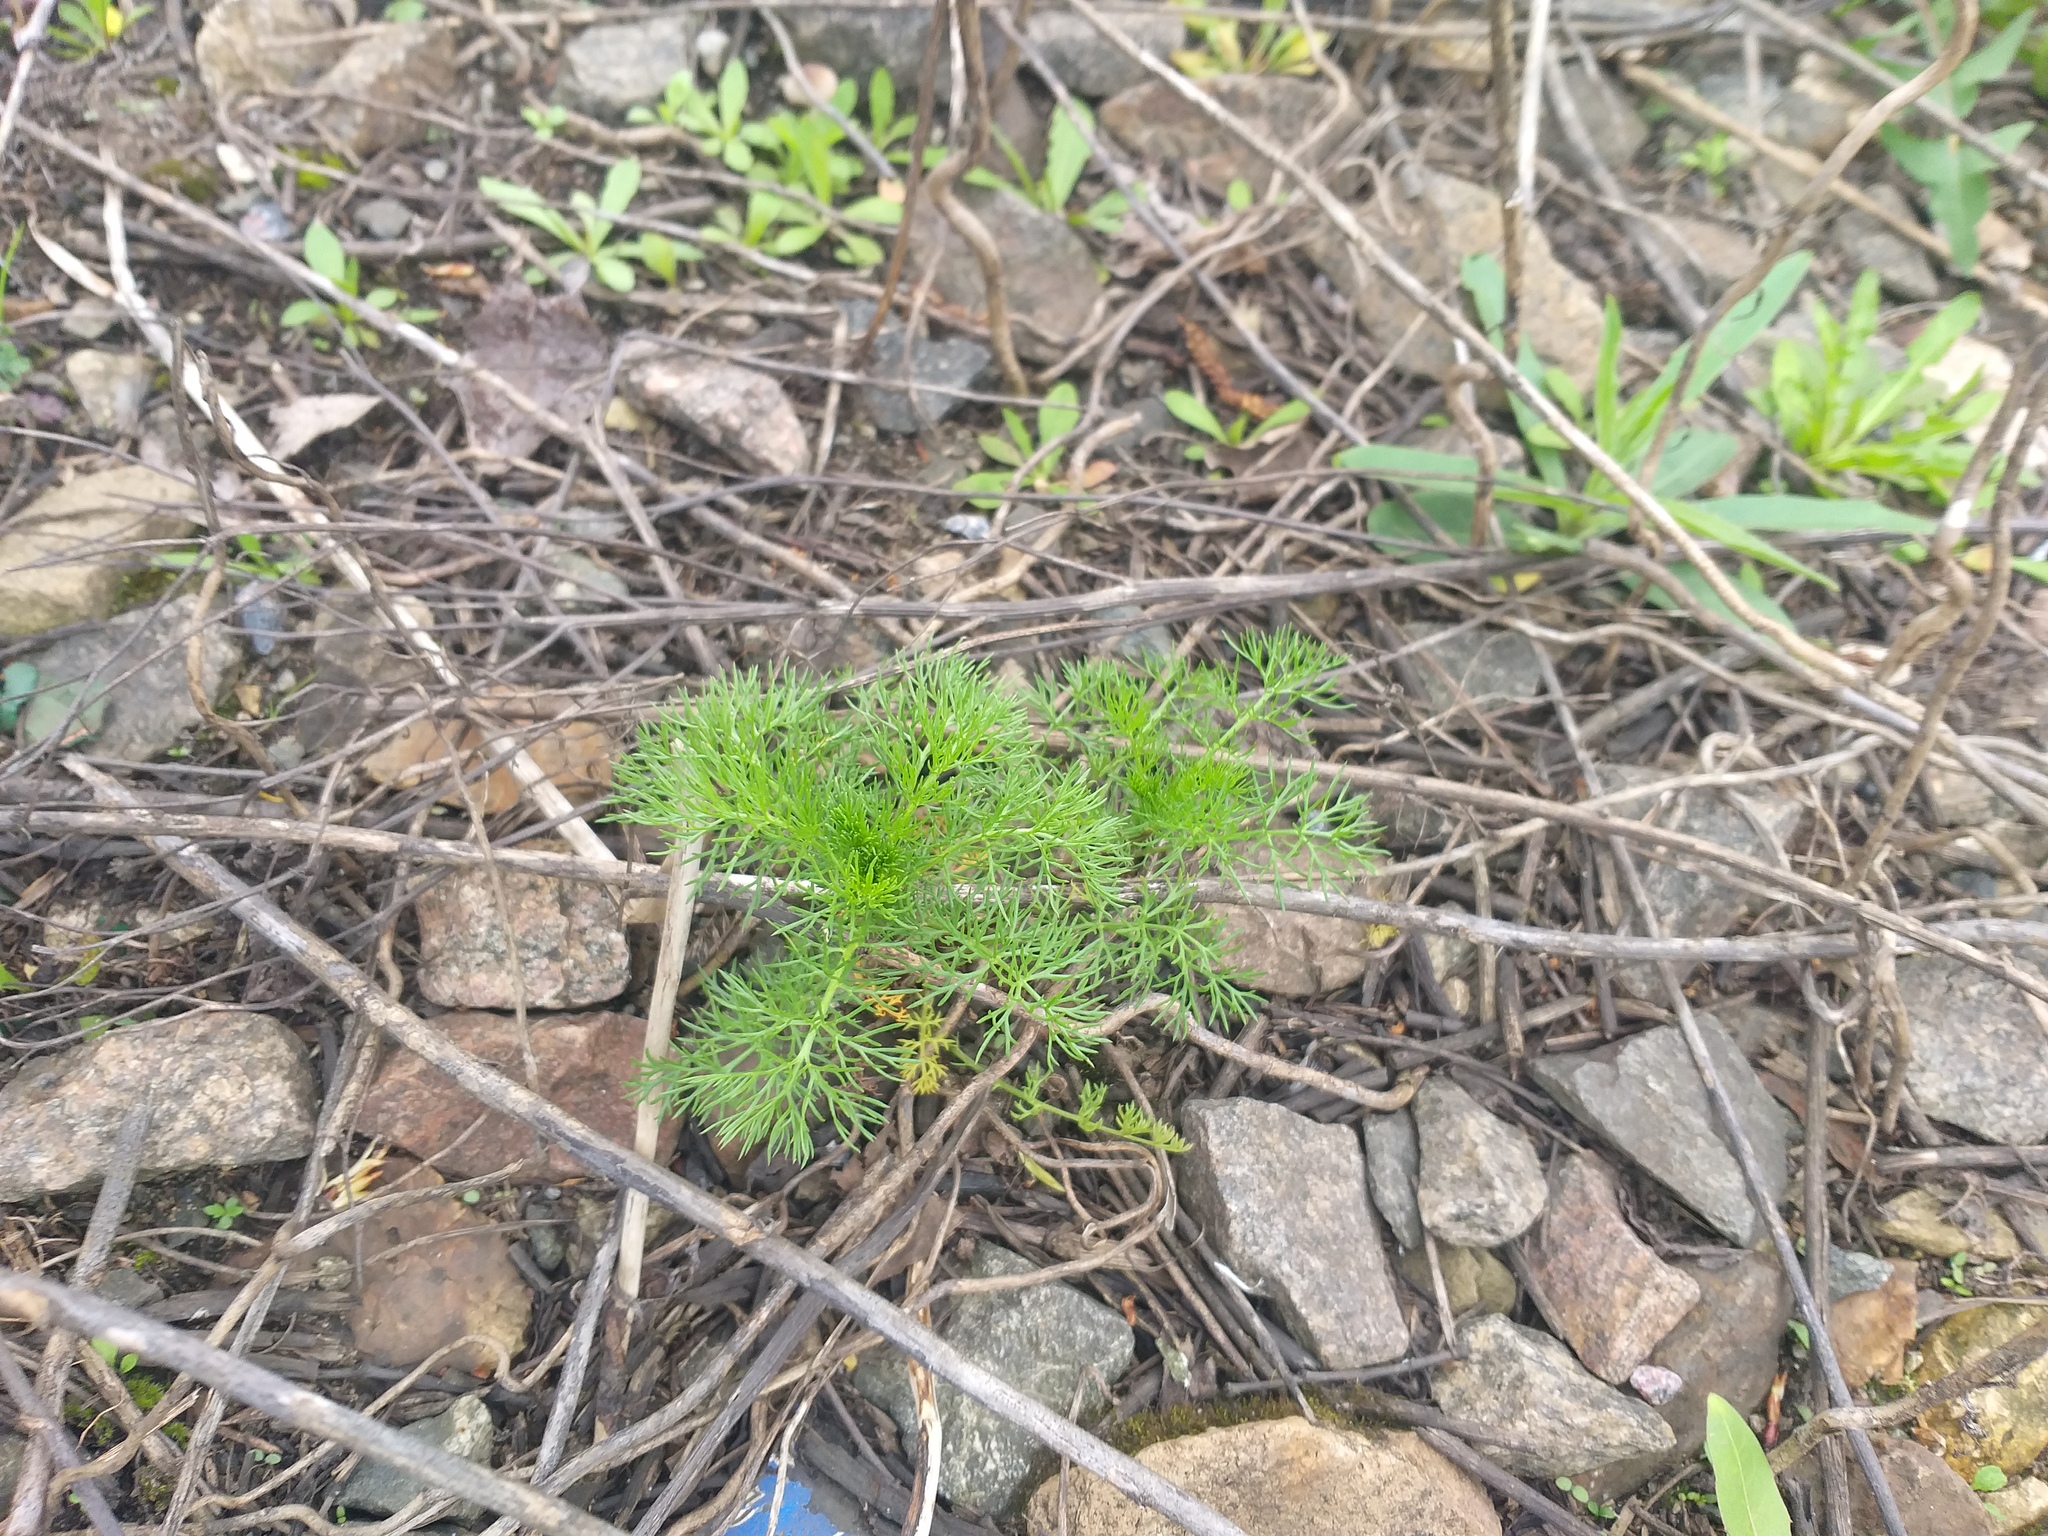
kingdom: Plantae
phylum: Tracheophyta
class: Magnoliopsida
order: Asterales
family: Asteraceae
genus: Tripleurospermum
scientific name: Tripleurospermum inodorum
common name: Scentless mayweed
